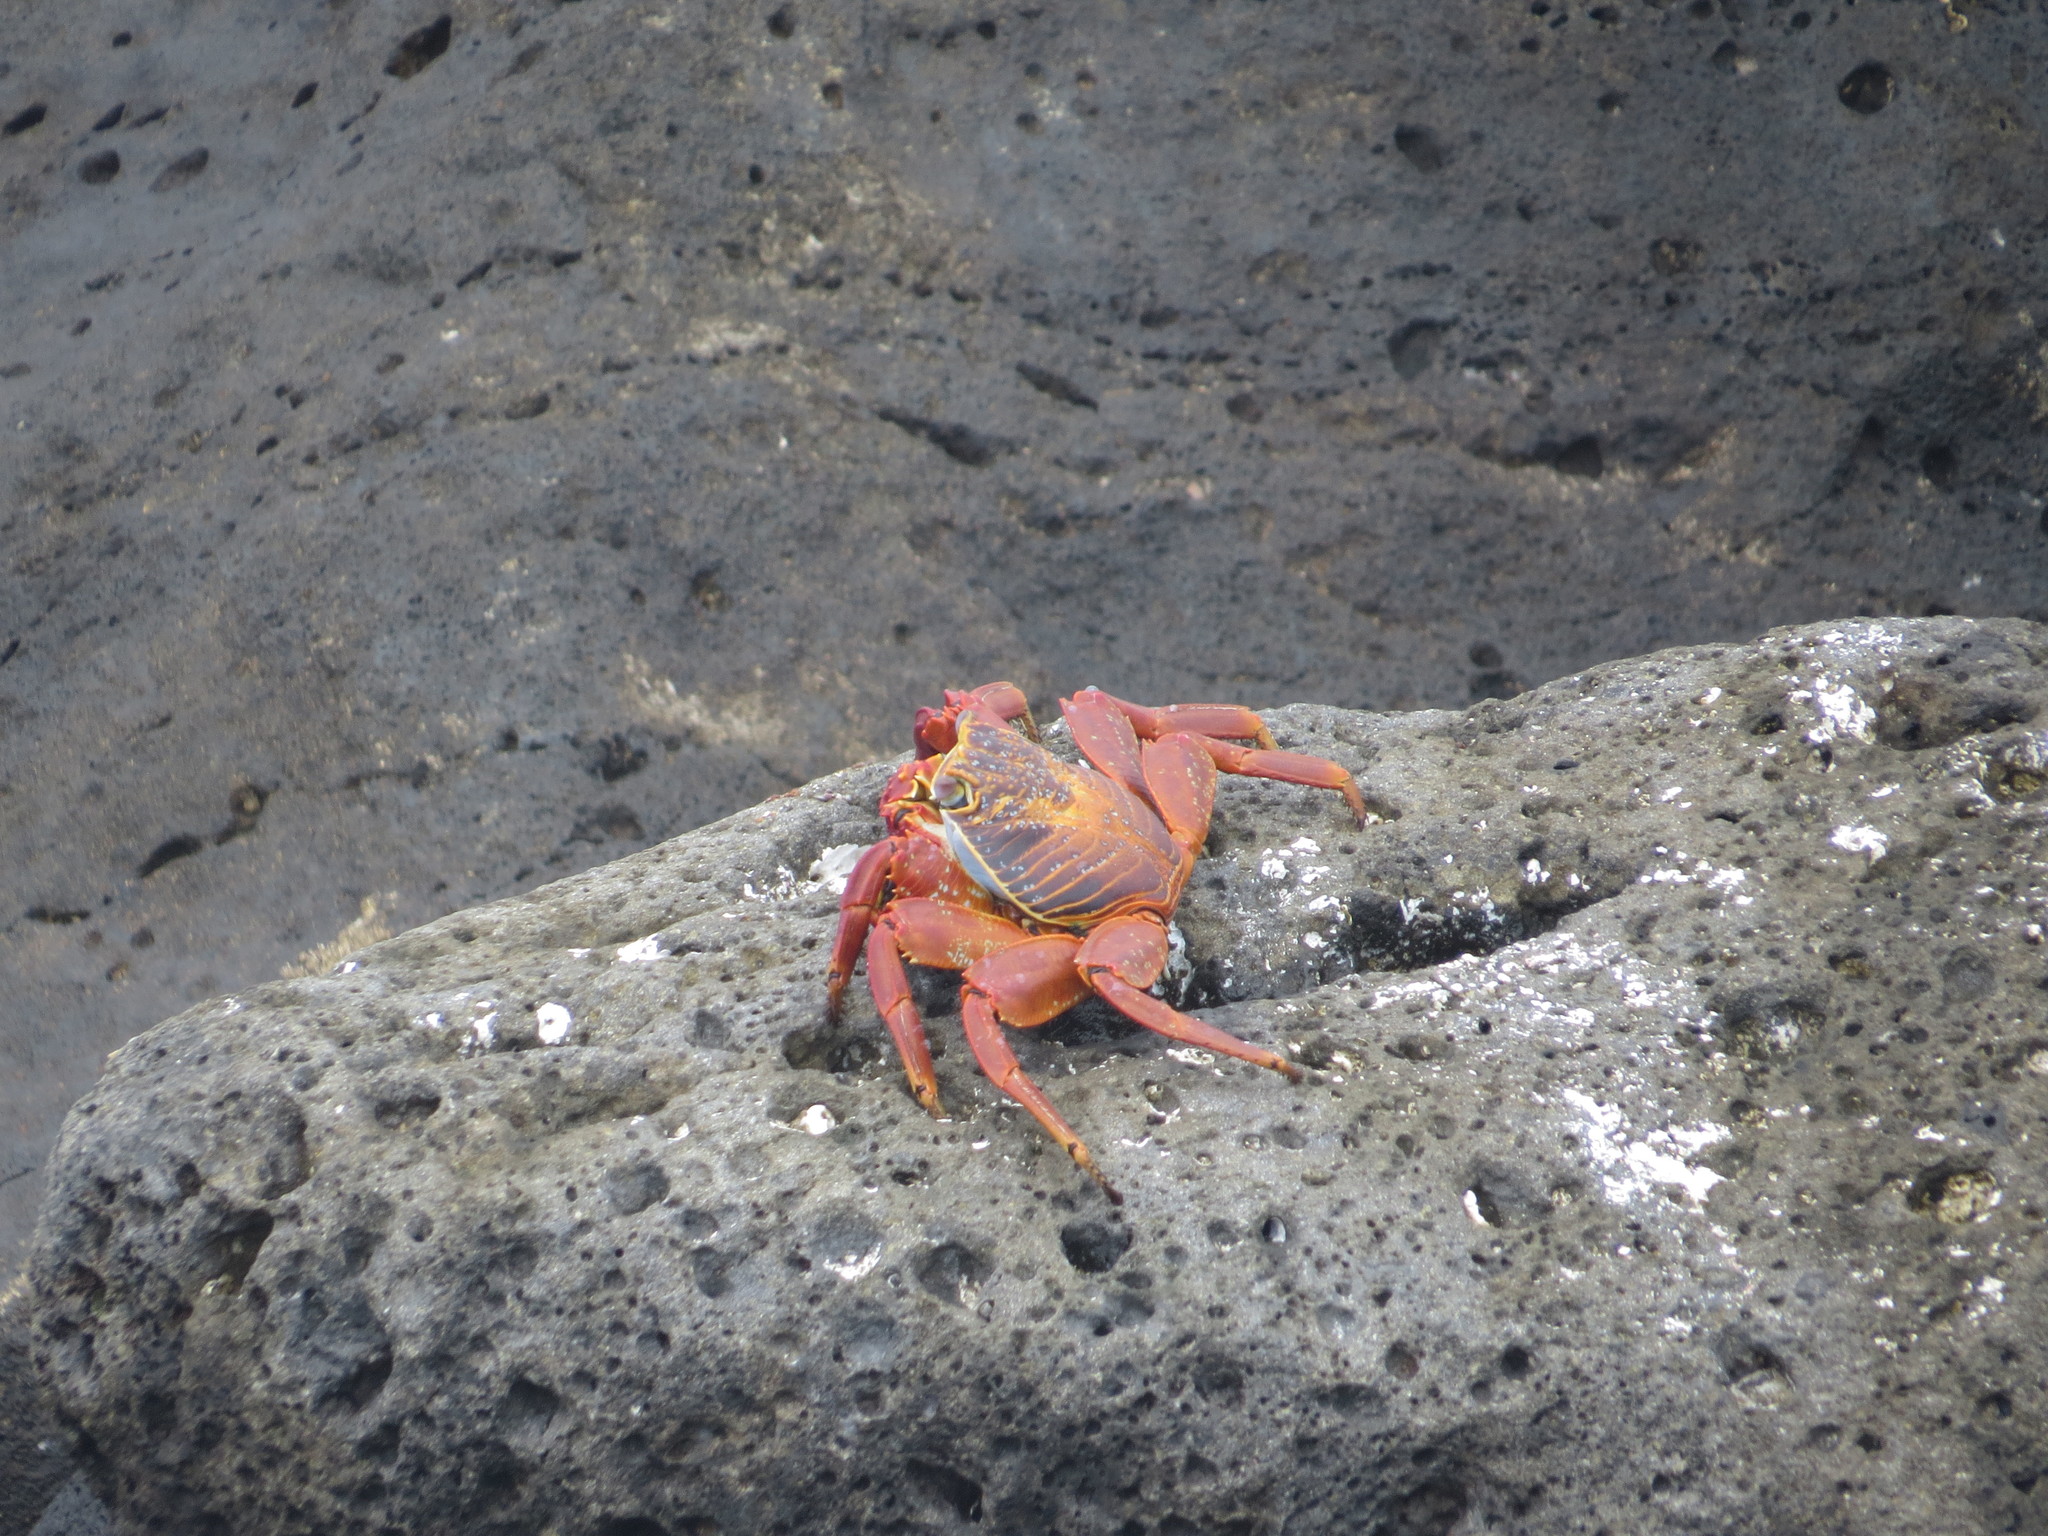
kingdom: Animalia
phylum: Arthropoda
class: Malacostraca
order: Decapoda
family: Grapsidae
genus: Grapsus
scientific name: Grapsus grapsus
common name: Sally lightfoot
